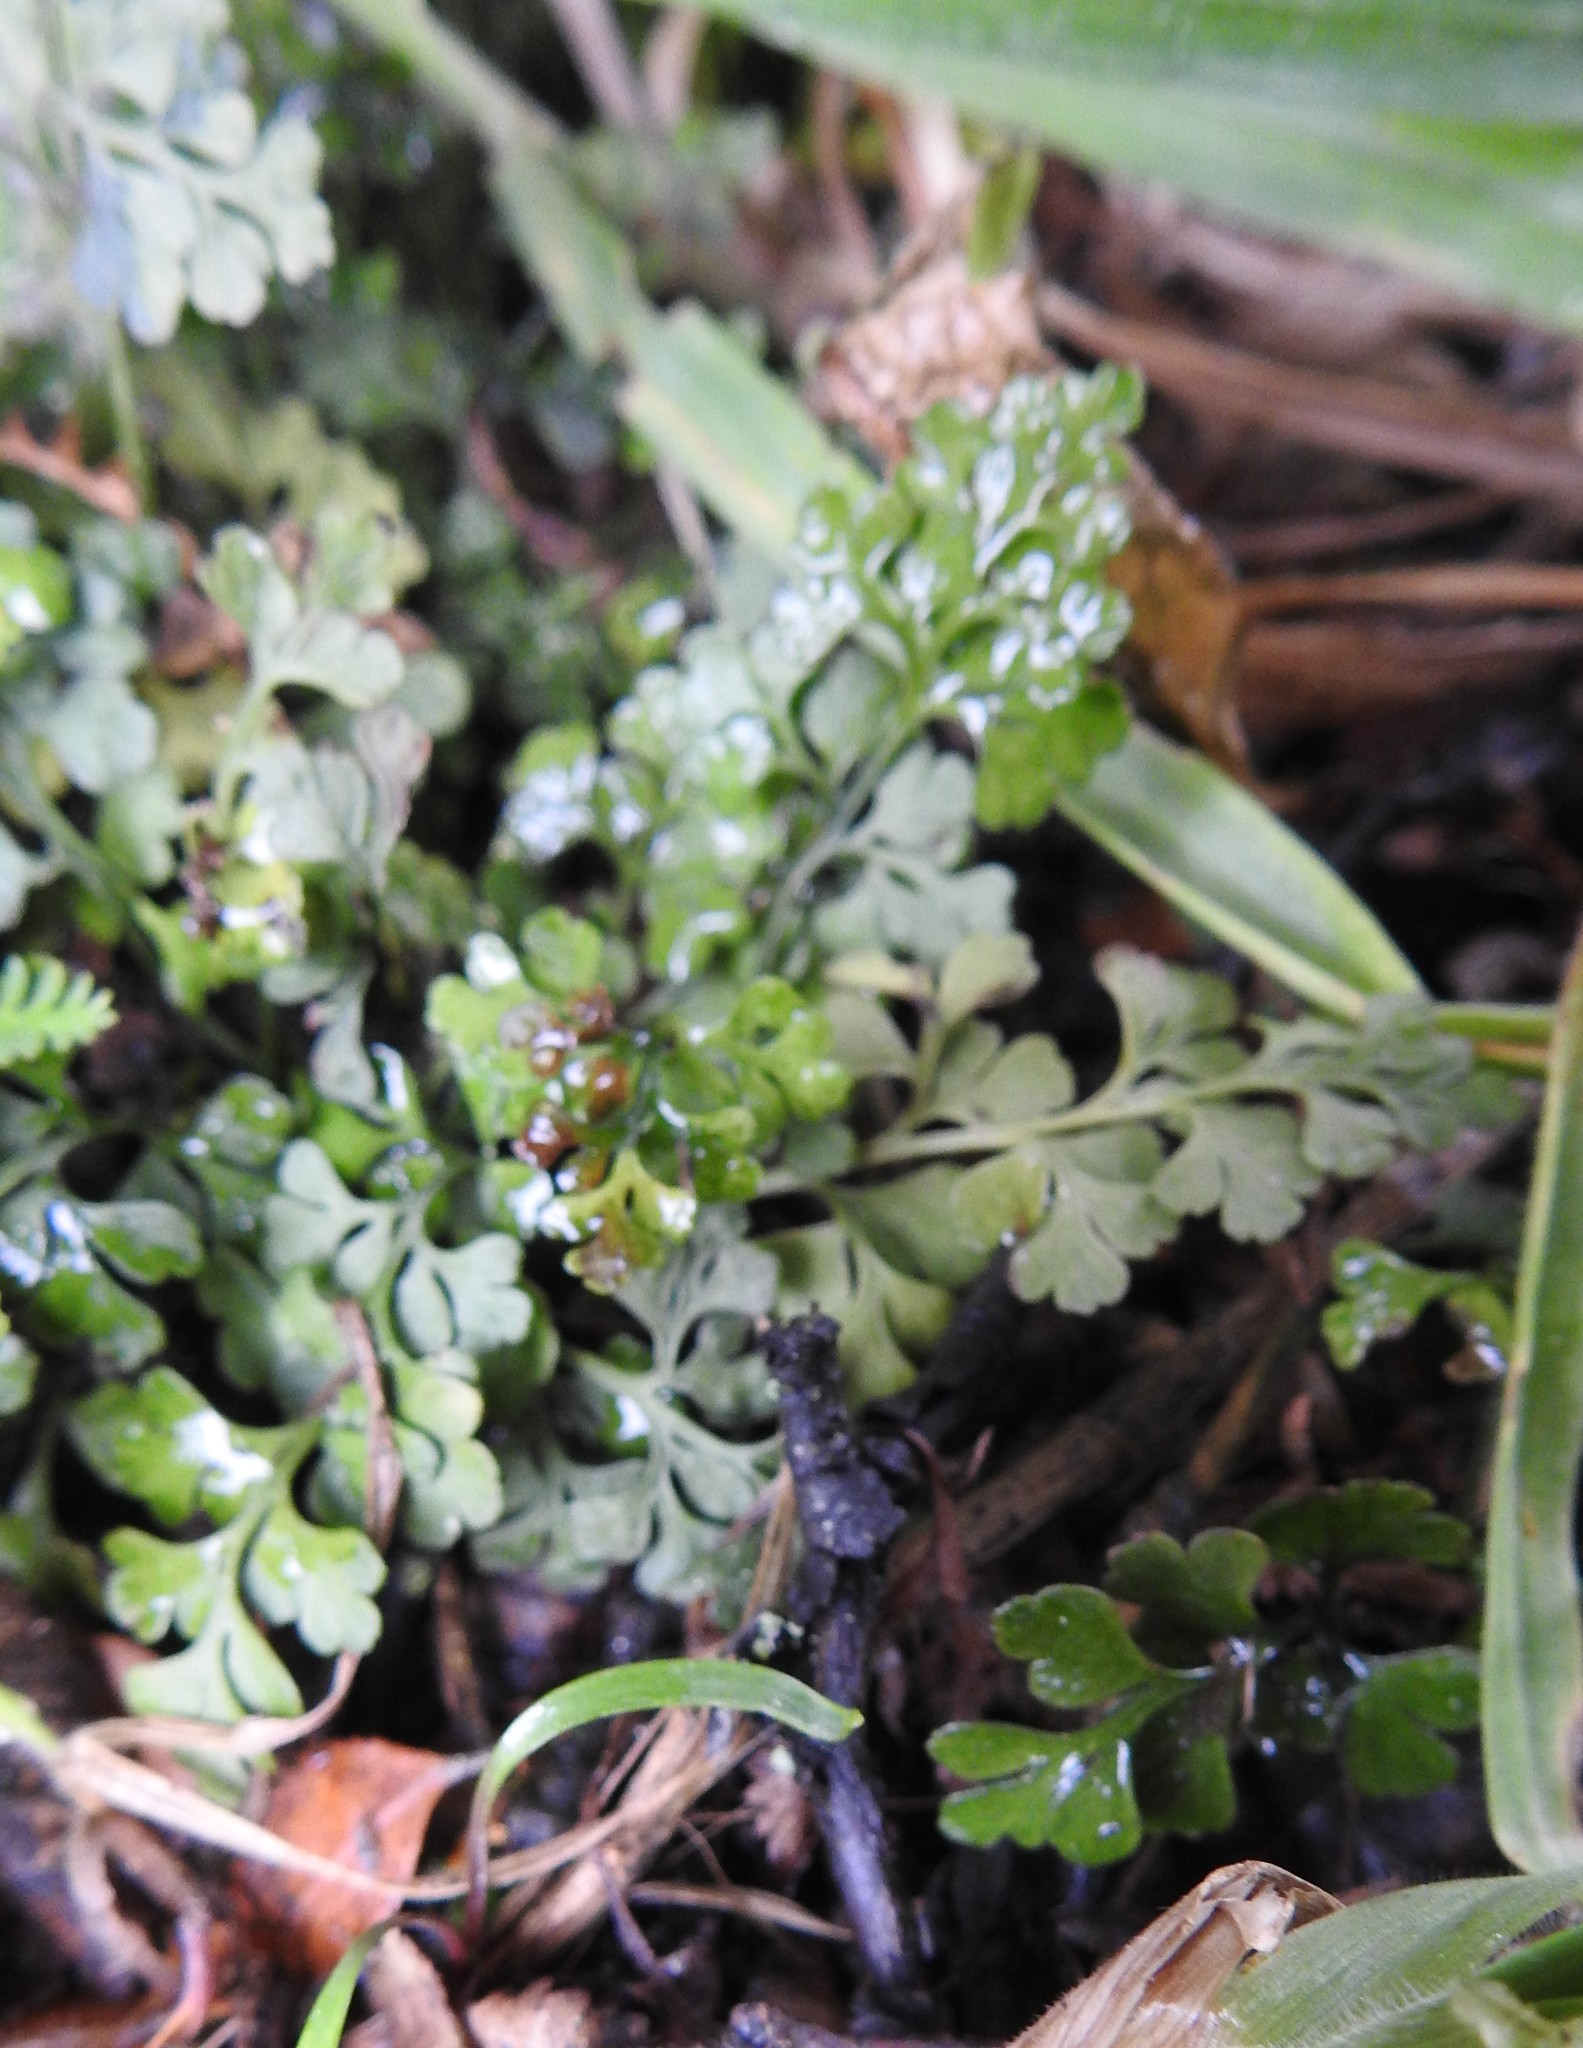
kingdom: Plantae
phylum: Tracheophyta
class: Polypodiopsida
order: Polypodiales
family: Aspleniaceae
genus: Asplenium
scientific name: Asplenium dareoides
